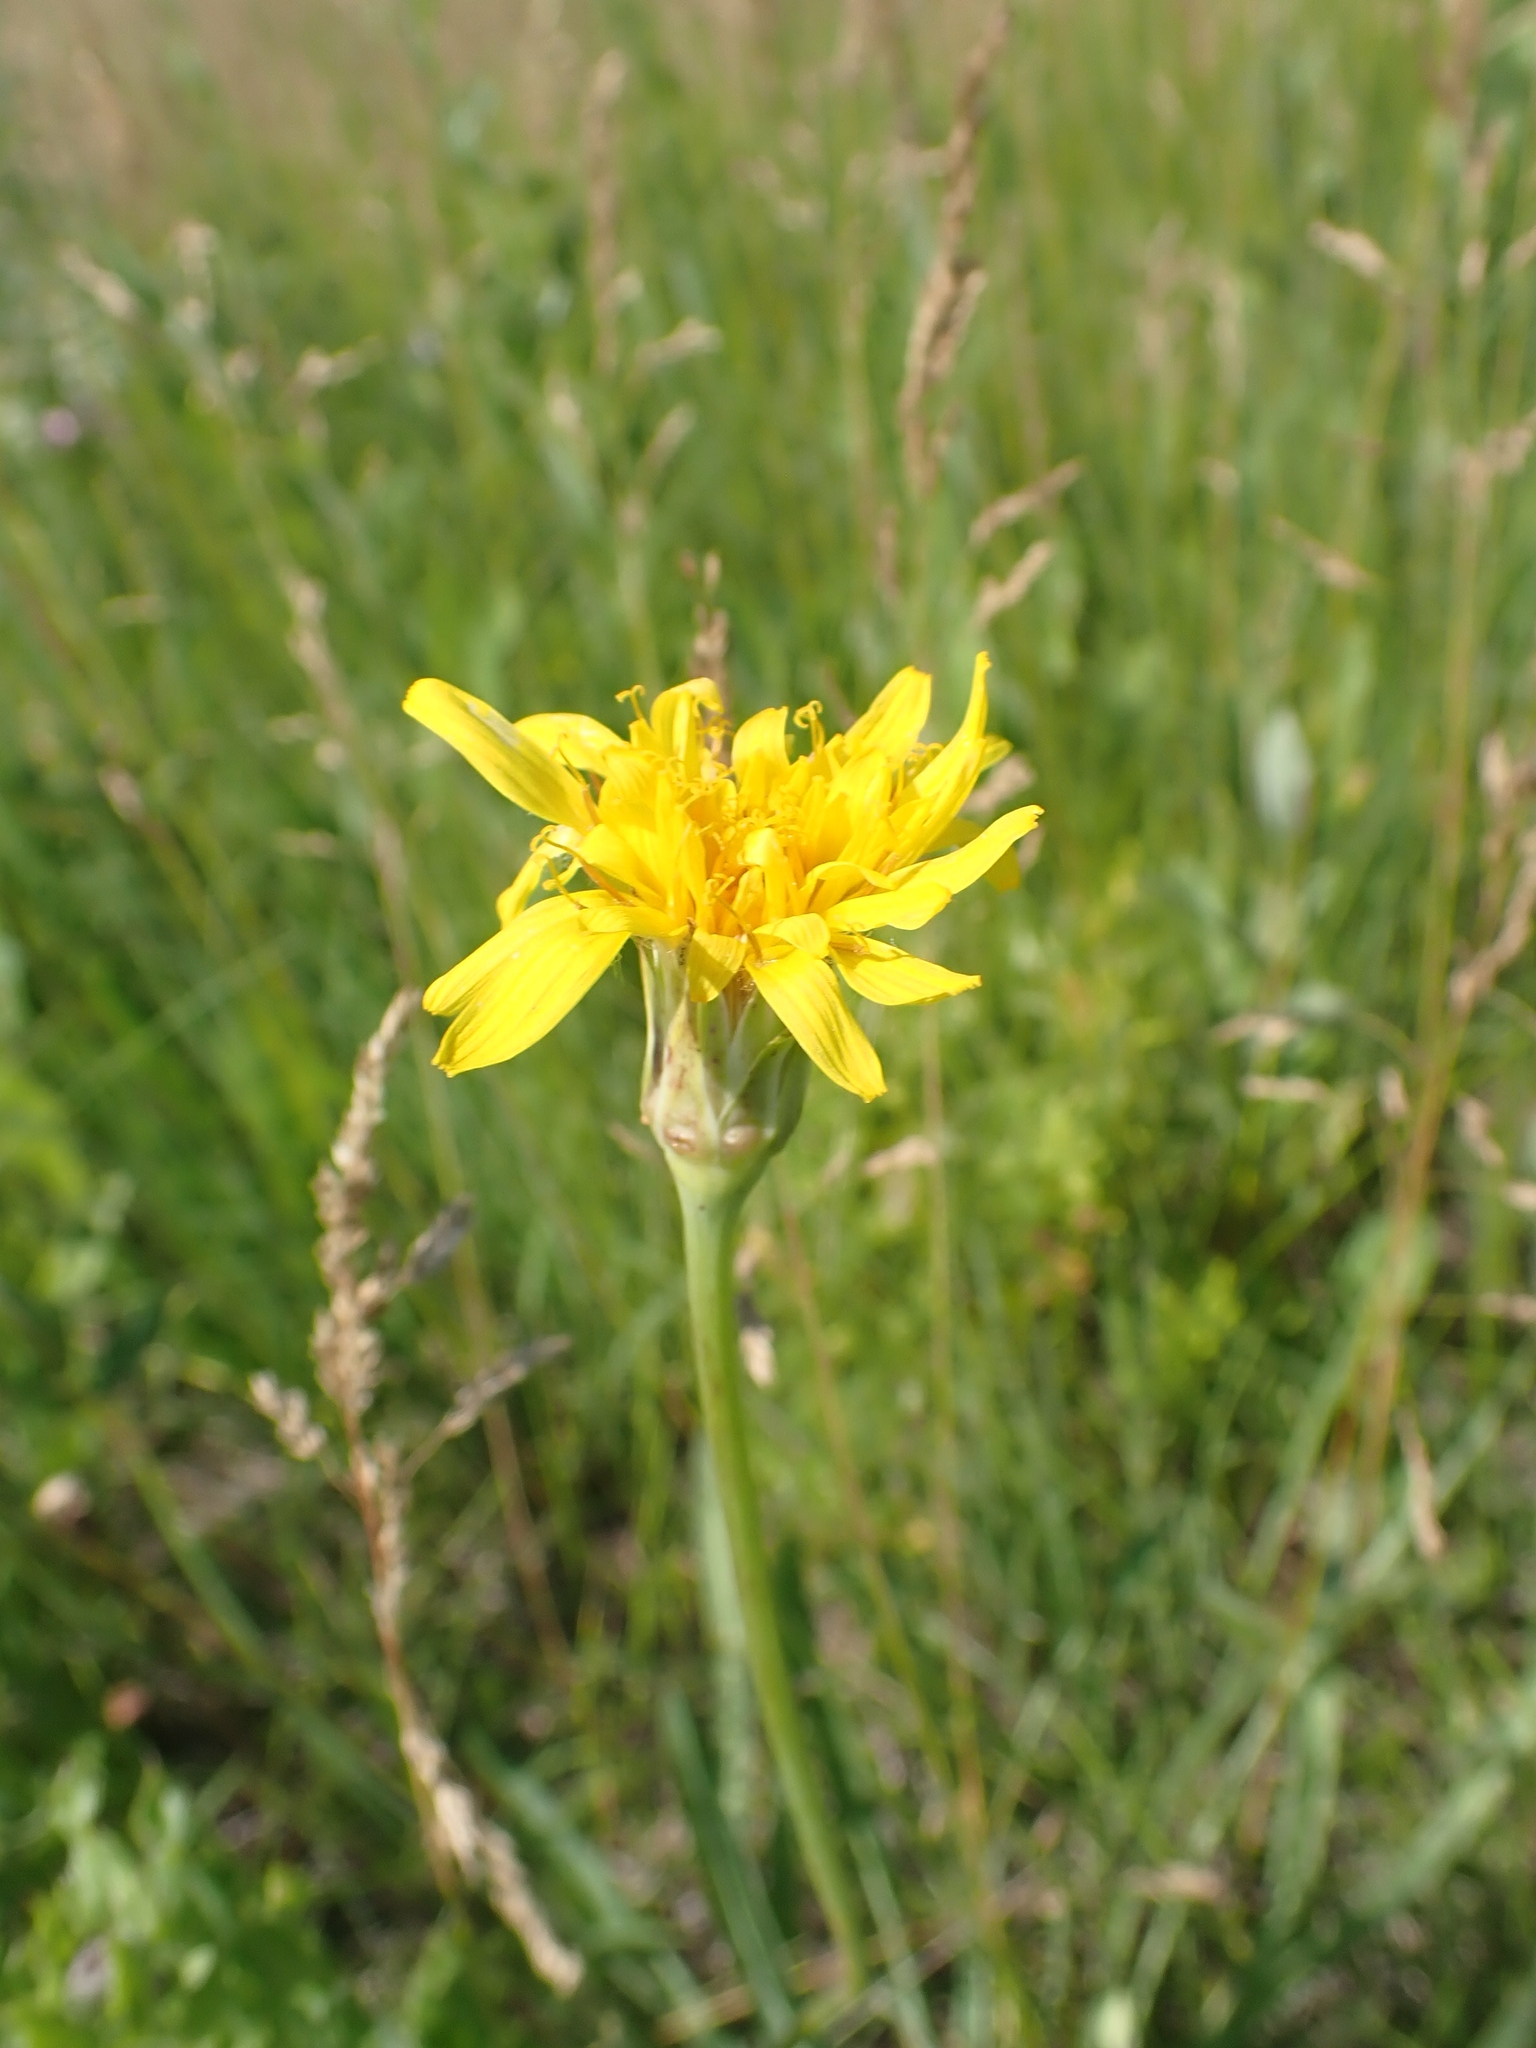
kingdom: Plantae
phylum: Tracheophyta
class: Magnoliopsida
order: Asterales
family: Asteraceae
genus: Agoseris
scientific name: Agoseris glauca
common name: Prairie agoseris
